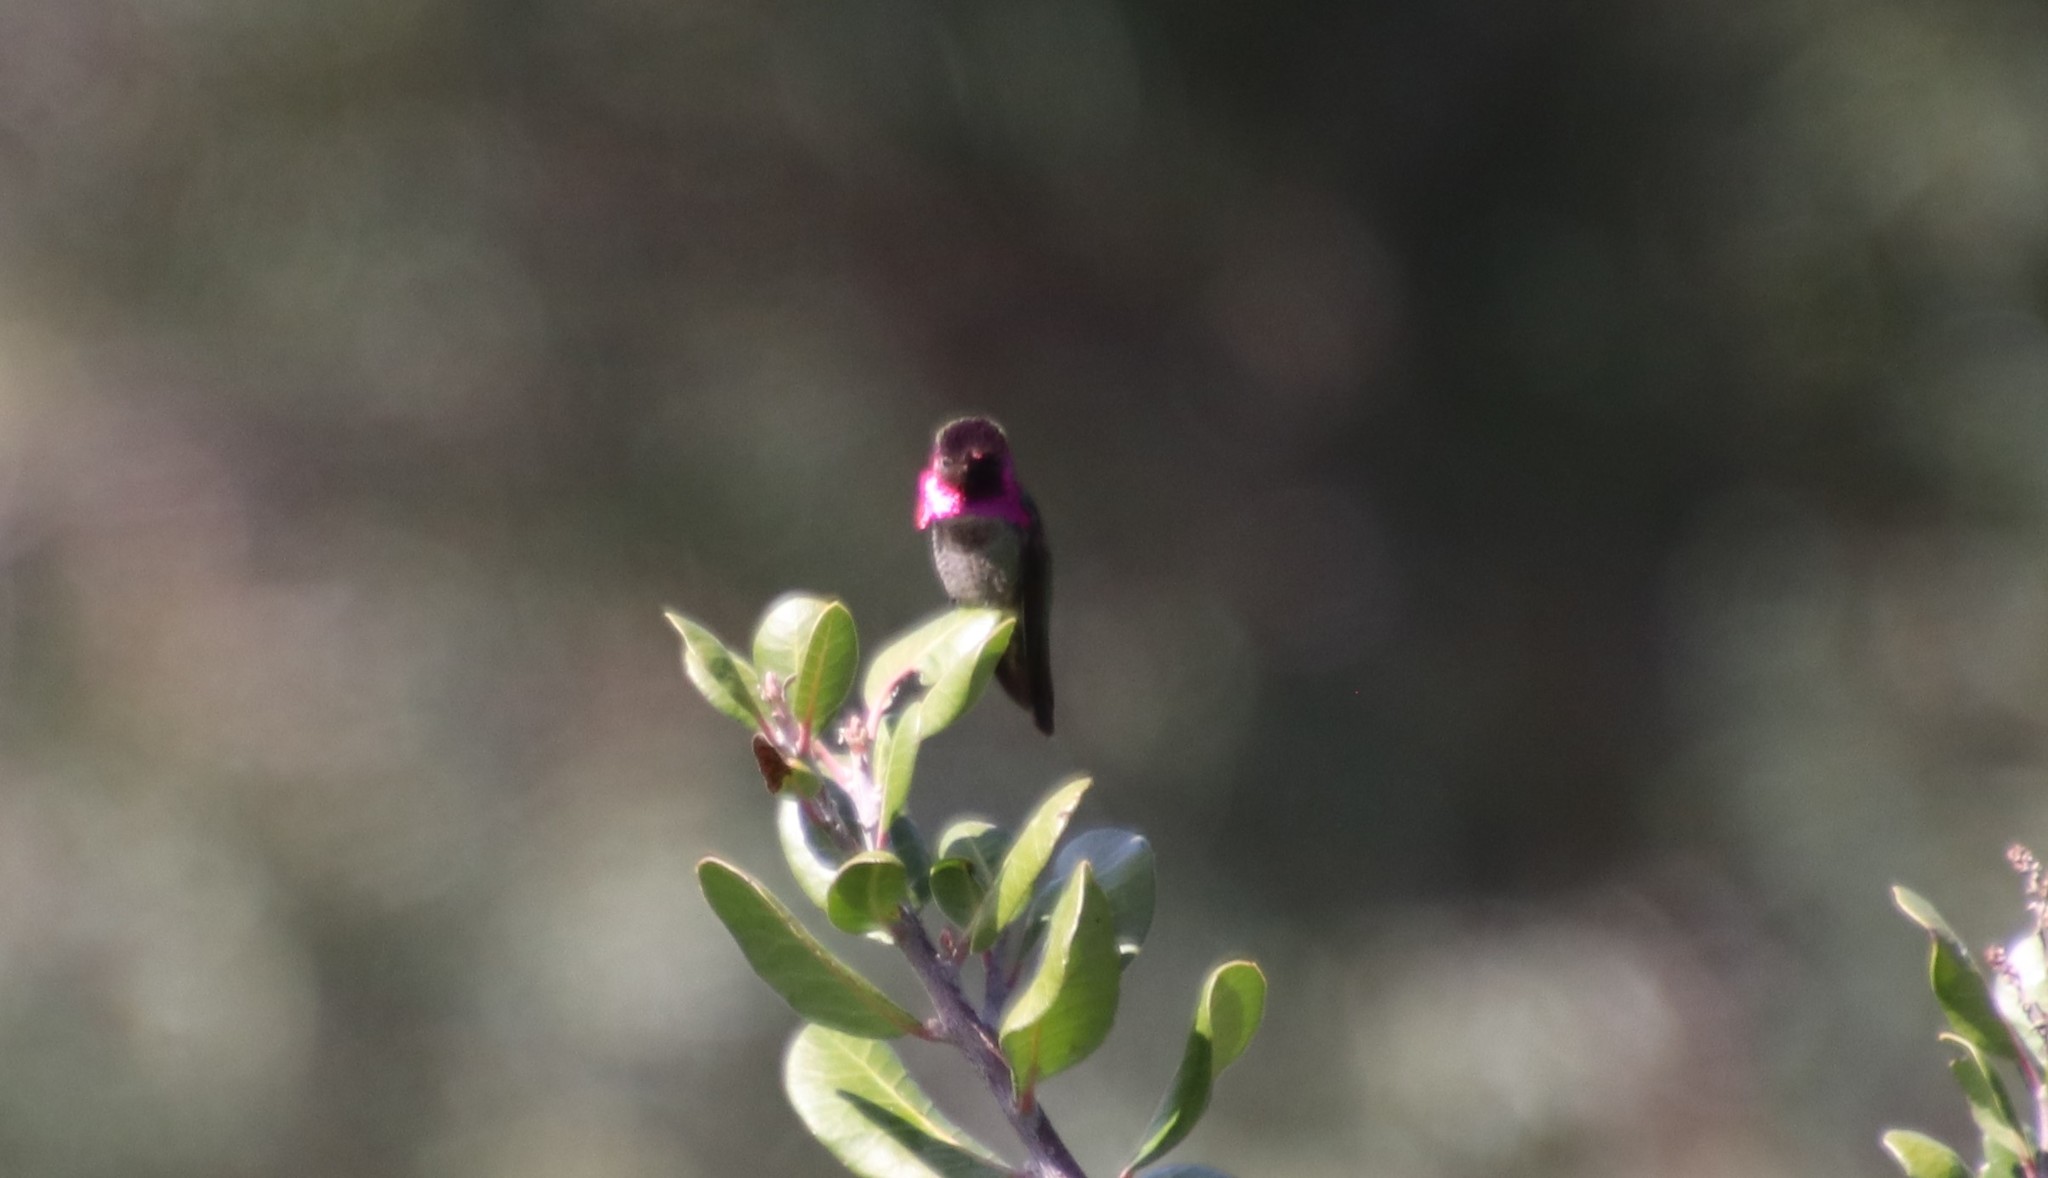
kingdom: Animalia
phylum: Chordata
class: Aves
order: Apodiformes
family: Trochilidae
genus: Calypte
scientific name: Calypte anna
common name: Anna's hummingbird
